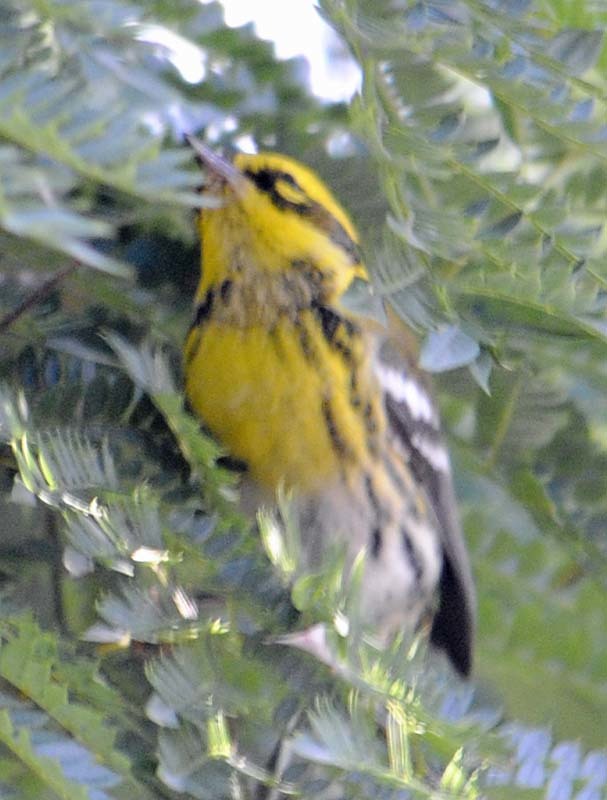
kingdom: Animalia
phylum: Chordata
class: Aves
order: Passeriformes
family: Parulidae
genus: Setophaga
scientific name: Setophaga townsendi
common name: Townsend's warbler
